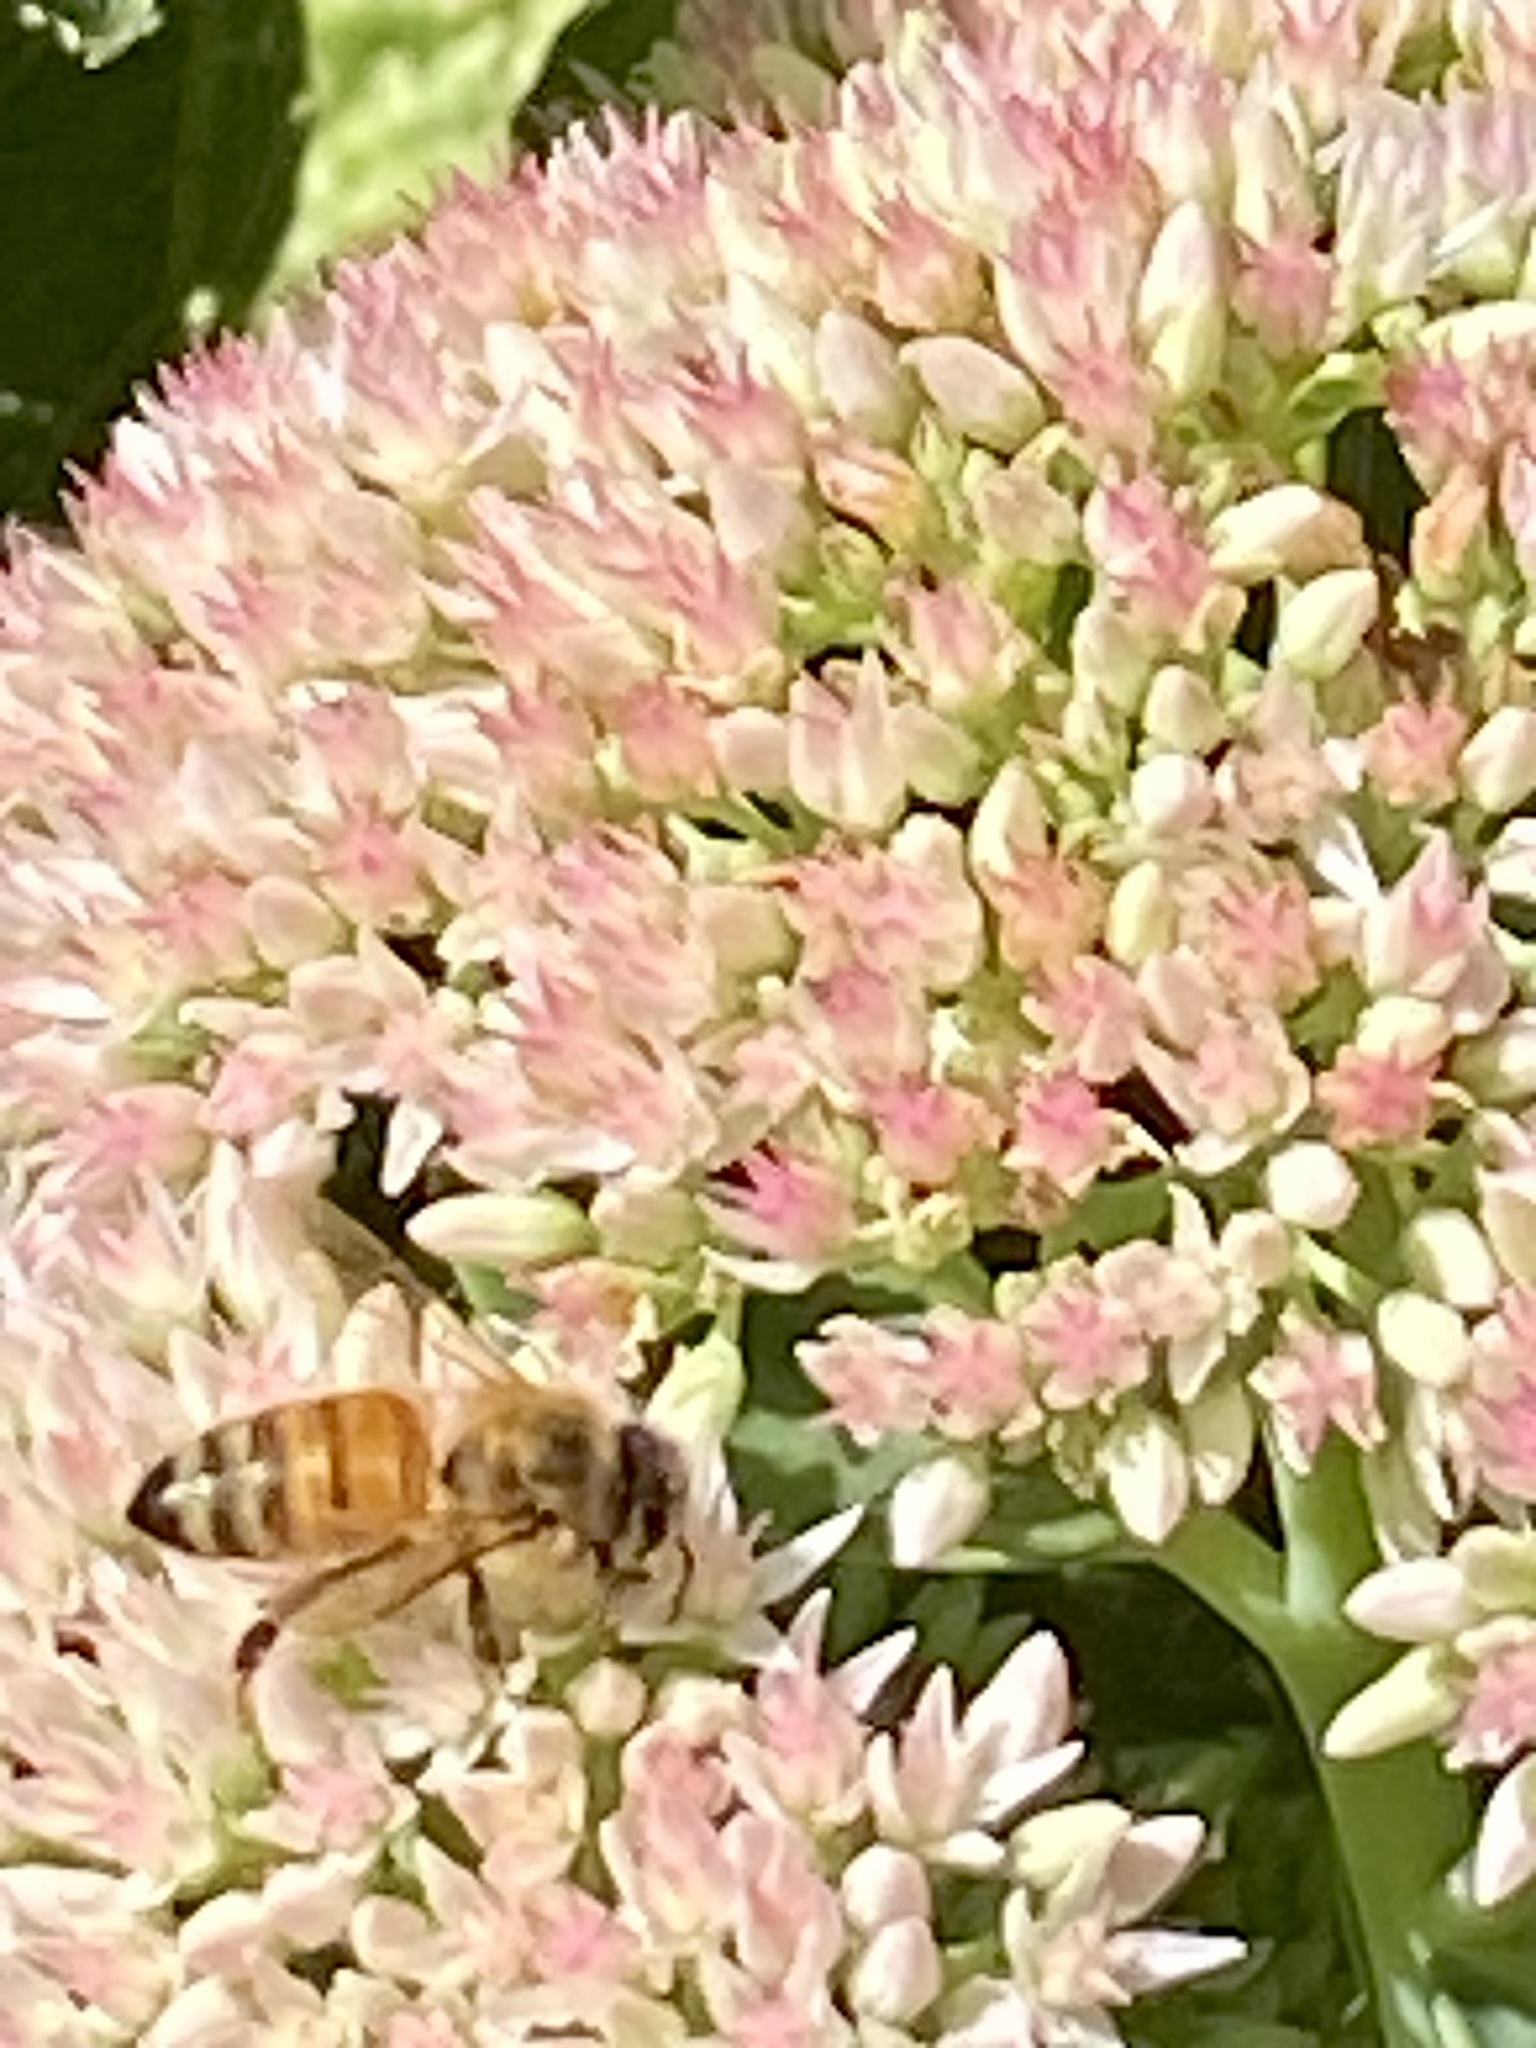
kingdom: Animalia
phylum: Arthropoda
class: Insecta
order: Hymenoptera
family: Apidae
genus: Apis
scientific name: Apis mellifera
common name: Honey bee
